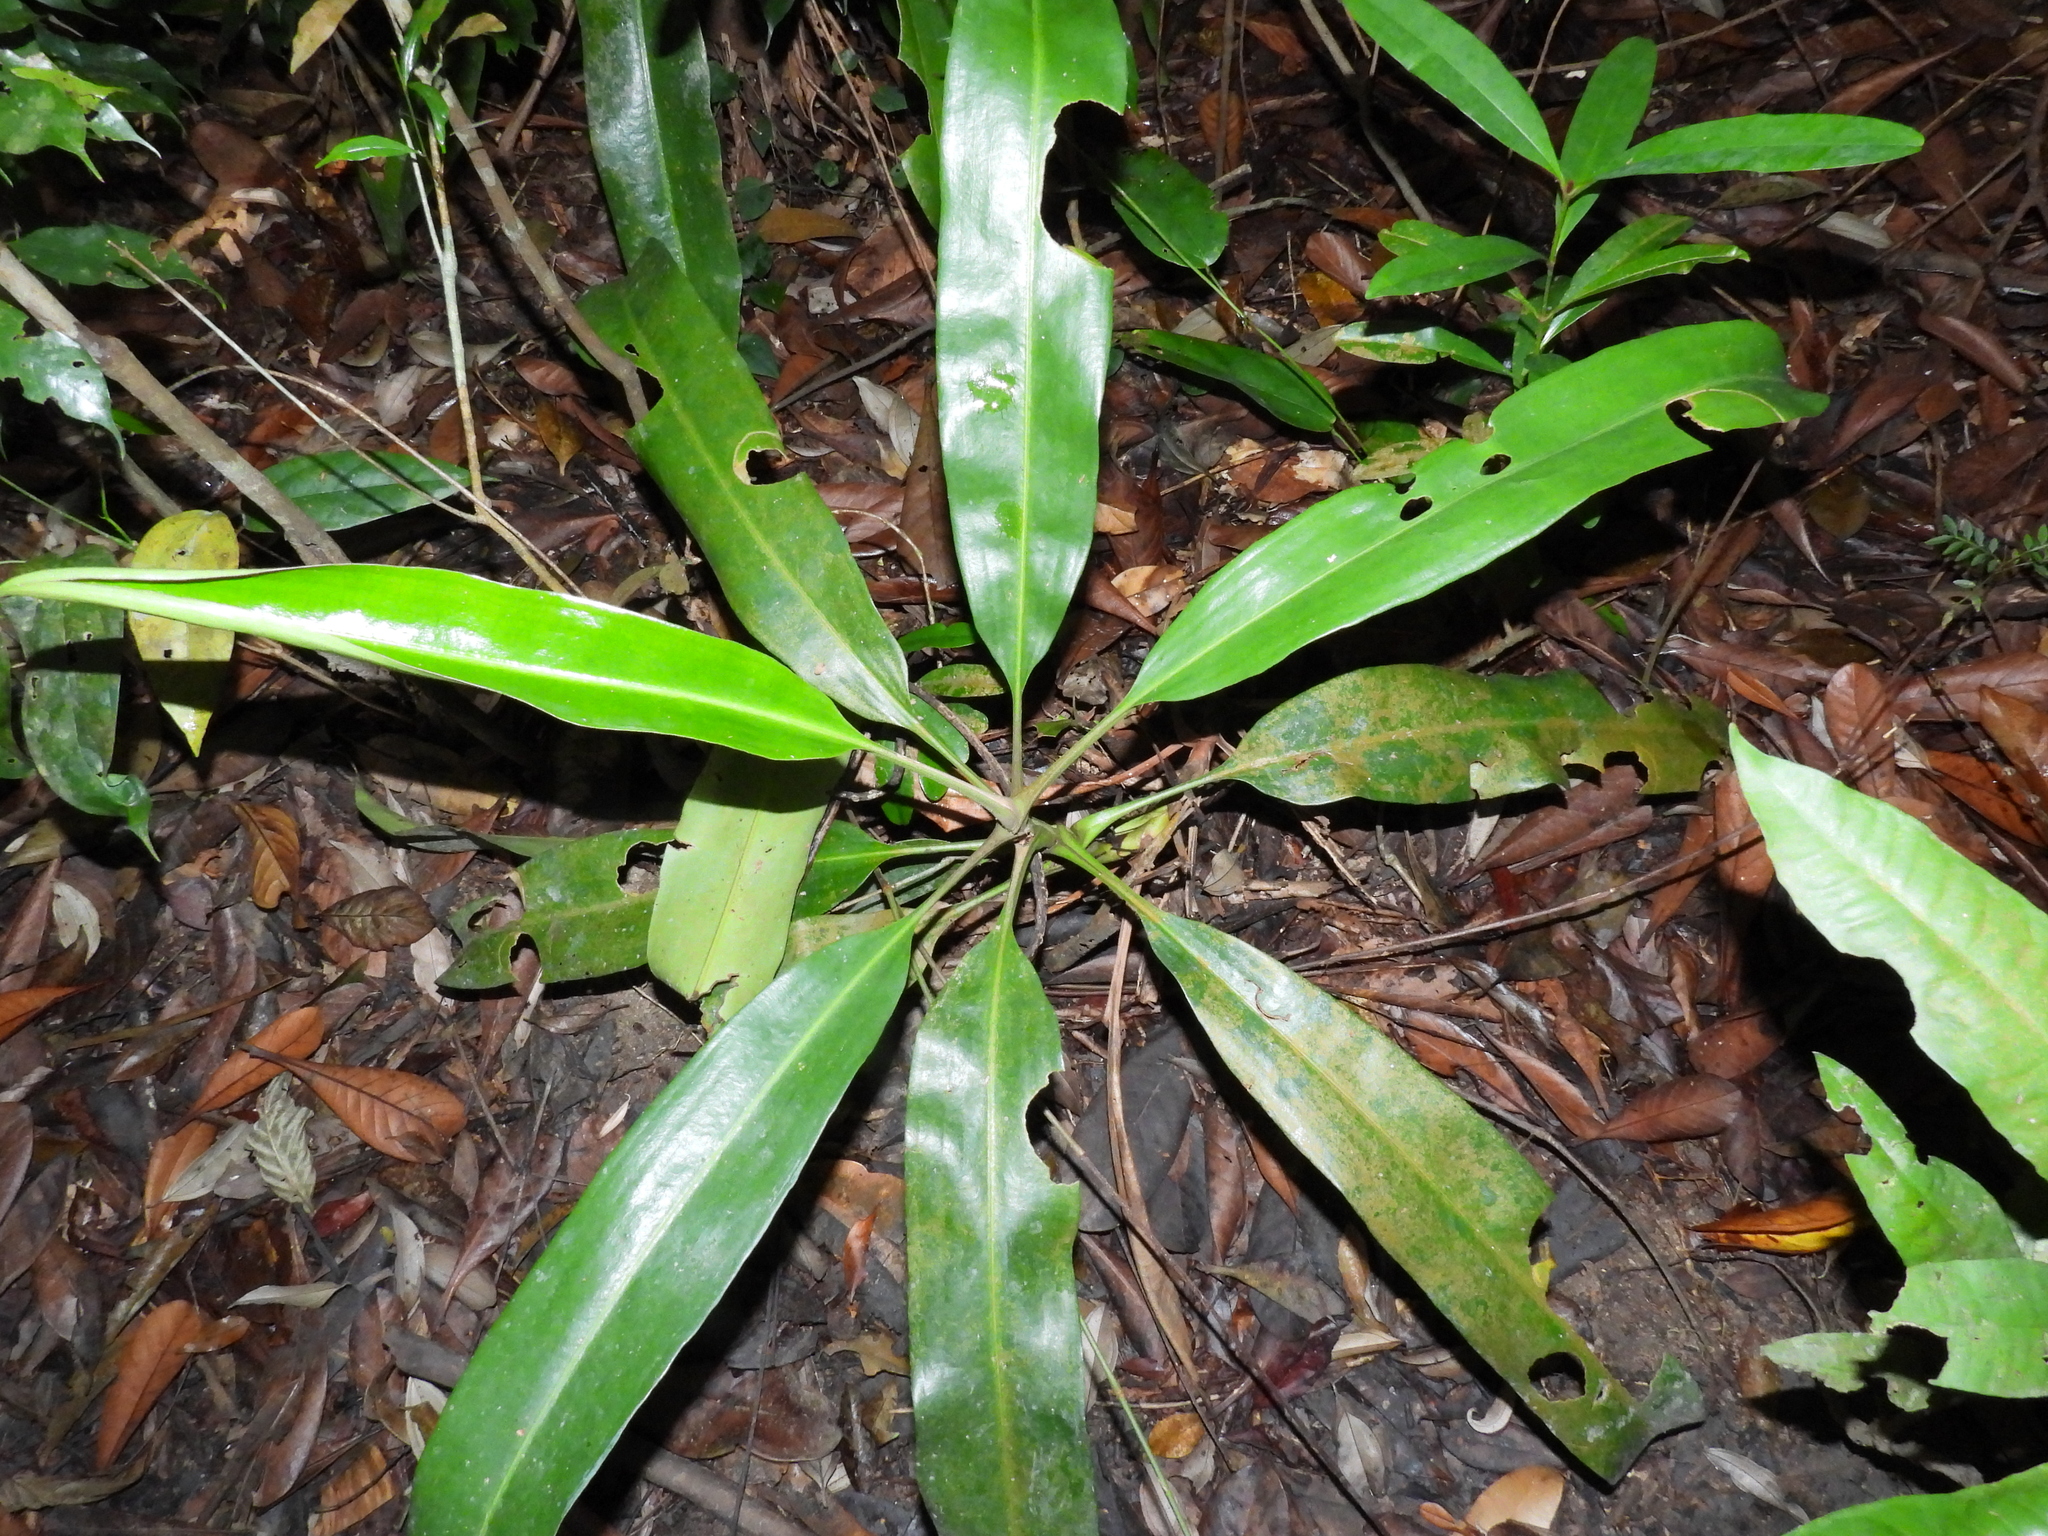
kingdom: Plantae
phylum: Tracheophyta
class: Magnoliopsida
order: Caryophyllales
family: Nepenthaceae
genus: Nepenthes
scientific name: Nepenthes rafflesiana
